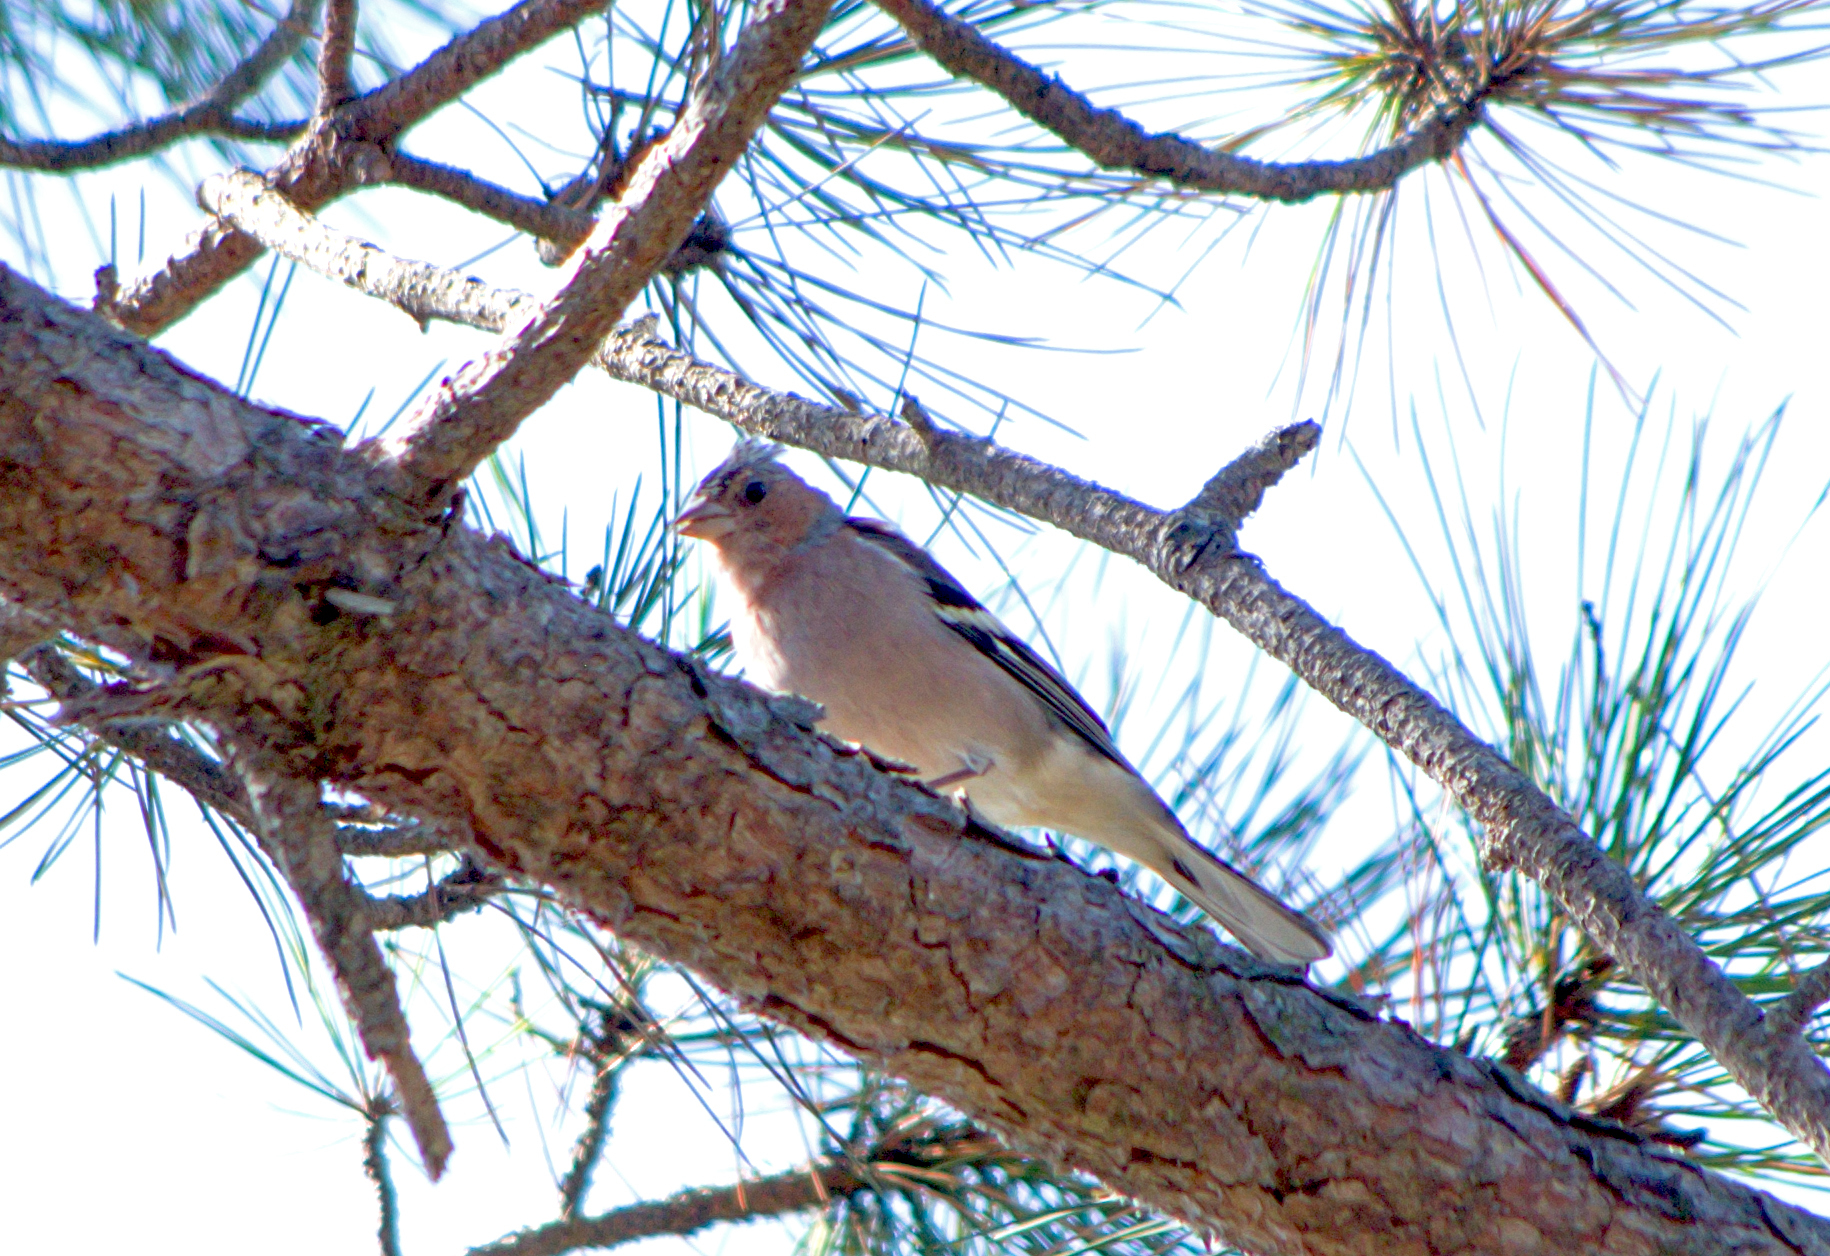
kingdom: Animalia
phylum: Chordata
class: Aves
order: Passeriformes
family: Fringillidae
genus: Fringilla
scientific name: Fringilla coelebs
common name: Common chaffinch
